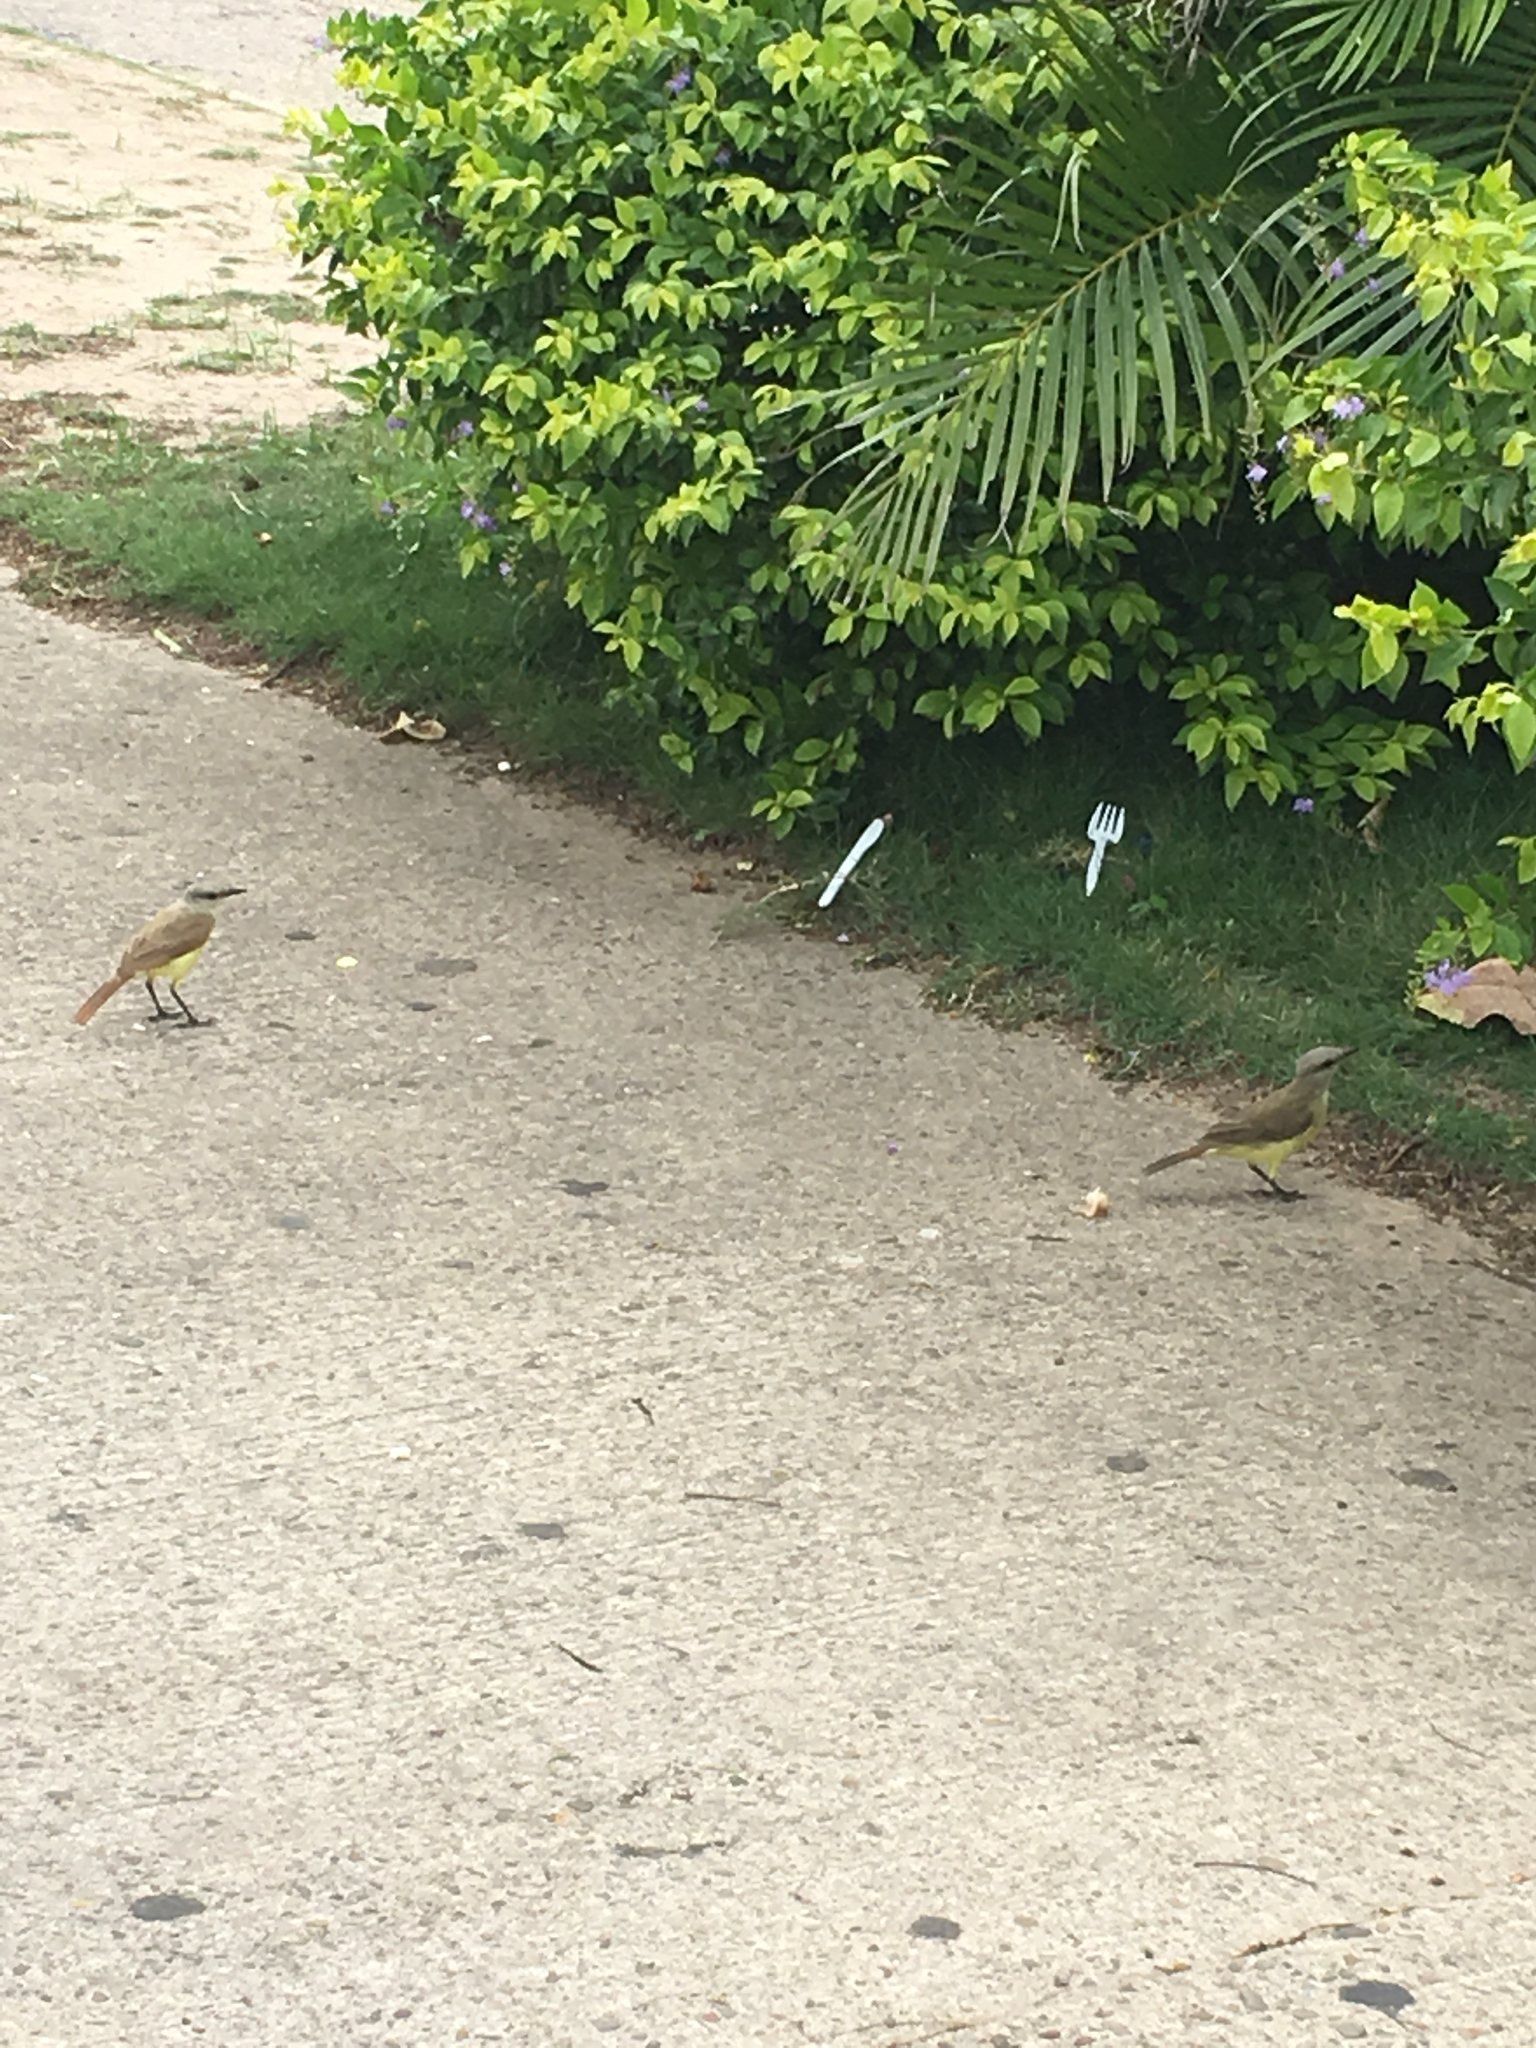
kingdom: Animalia
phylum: Chordata
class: Aves
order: Passeriformes
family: Tyrannidae
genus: Machetornis
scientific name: Machetornis rixosa
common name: Cattle tyrant
